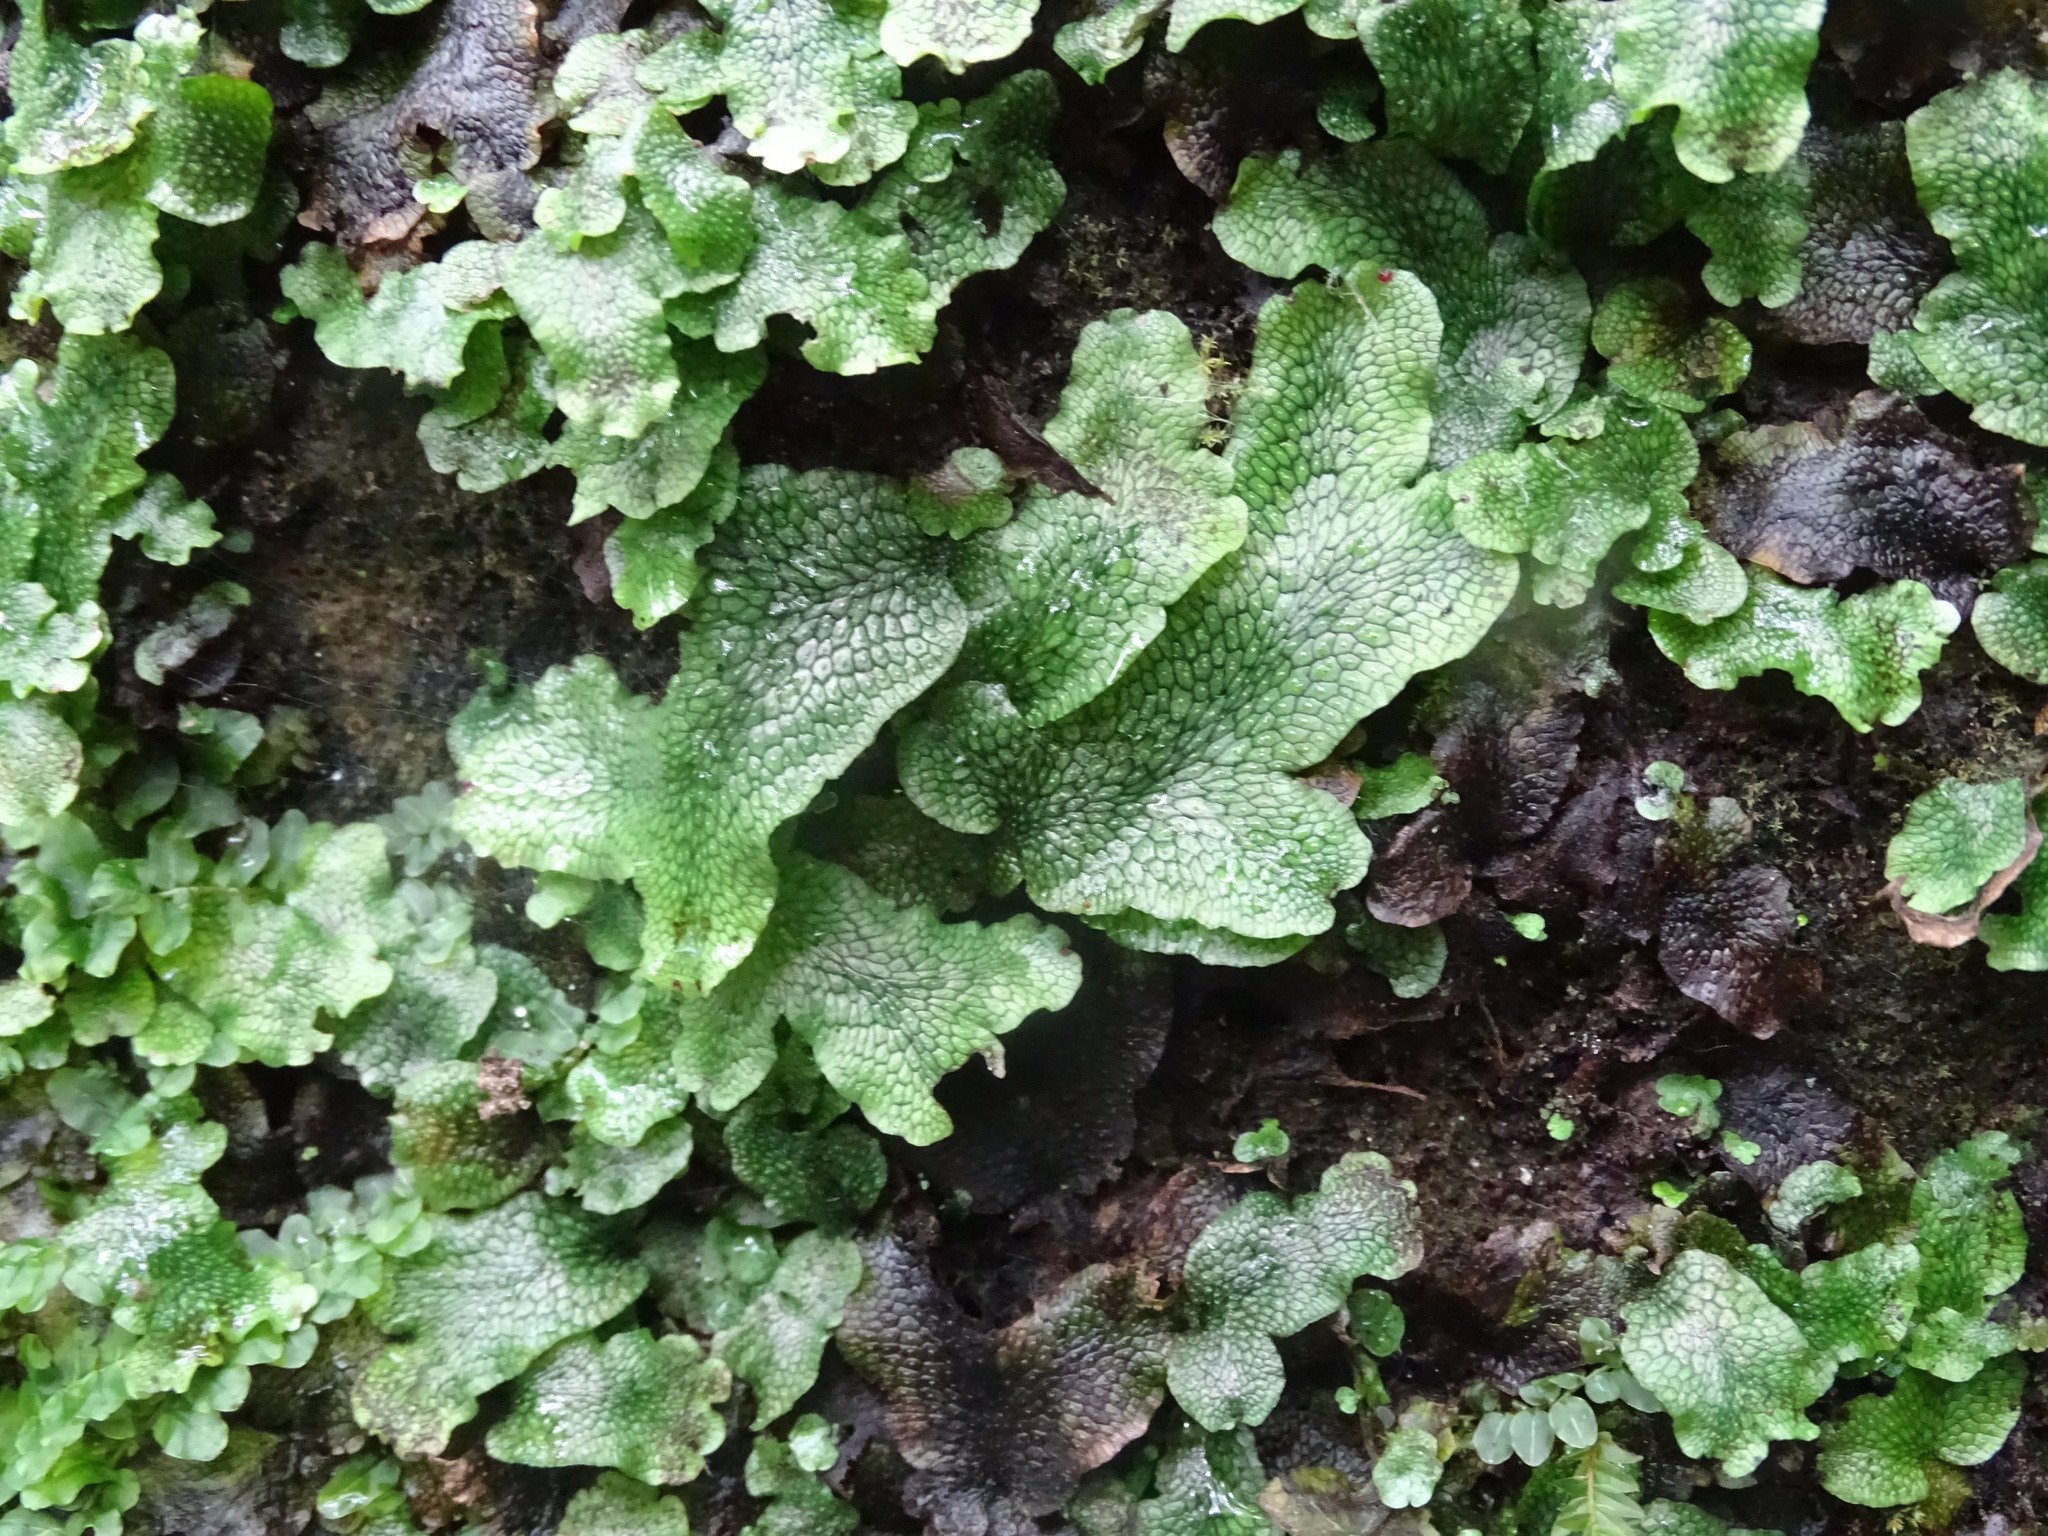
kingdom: Plantae
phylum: Marchantiophyta
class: Marchantiopsida
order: Marchantiales
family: Conocephalaceae
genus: Conocephalum
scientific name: Conocephalum salebrosum
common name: Cat-tongue liverwort
